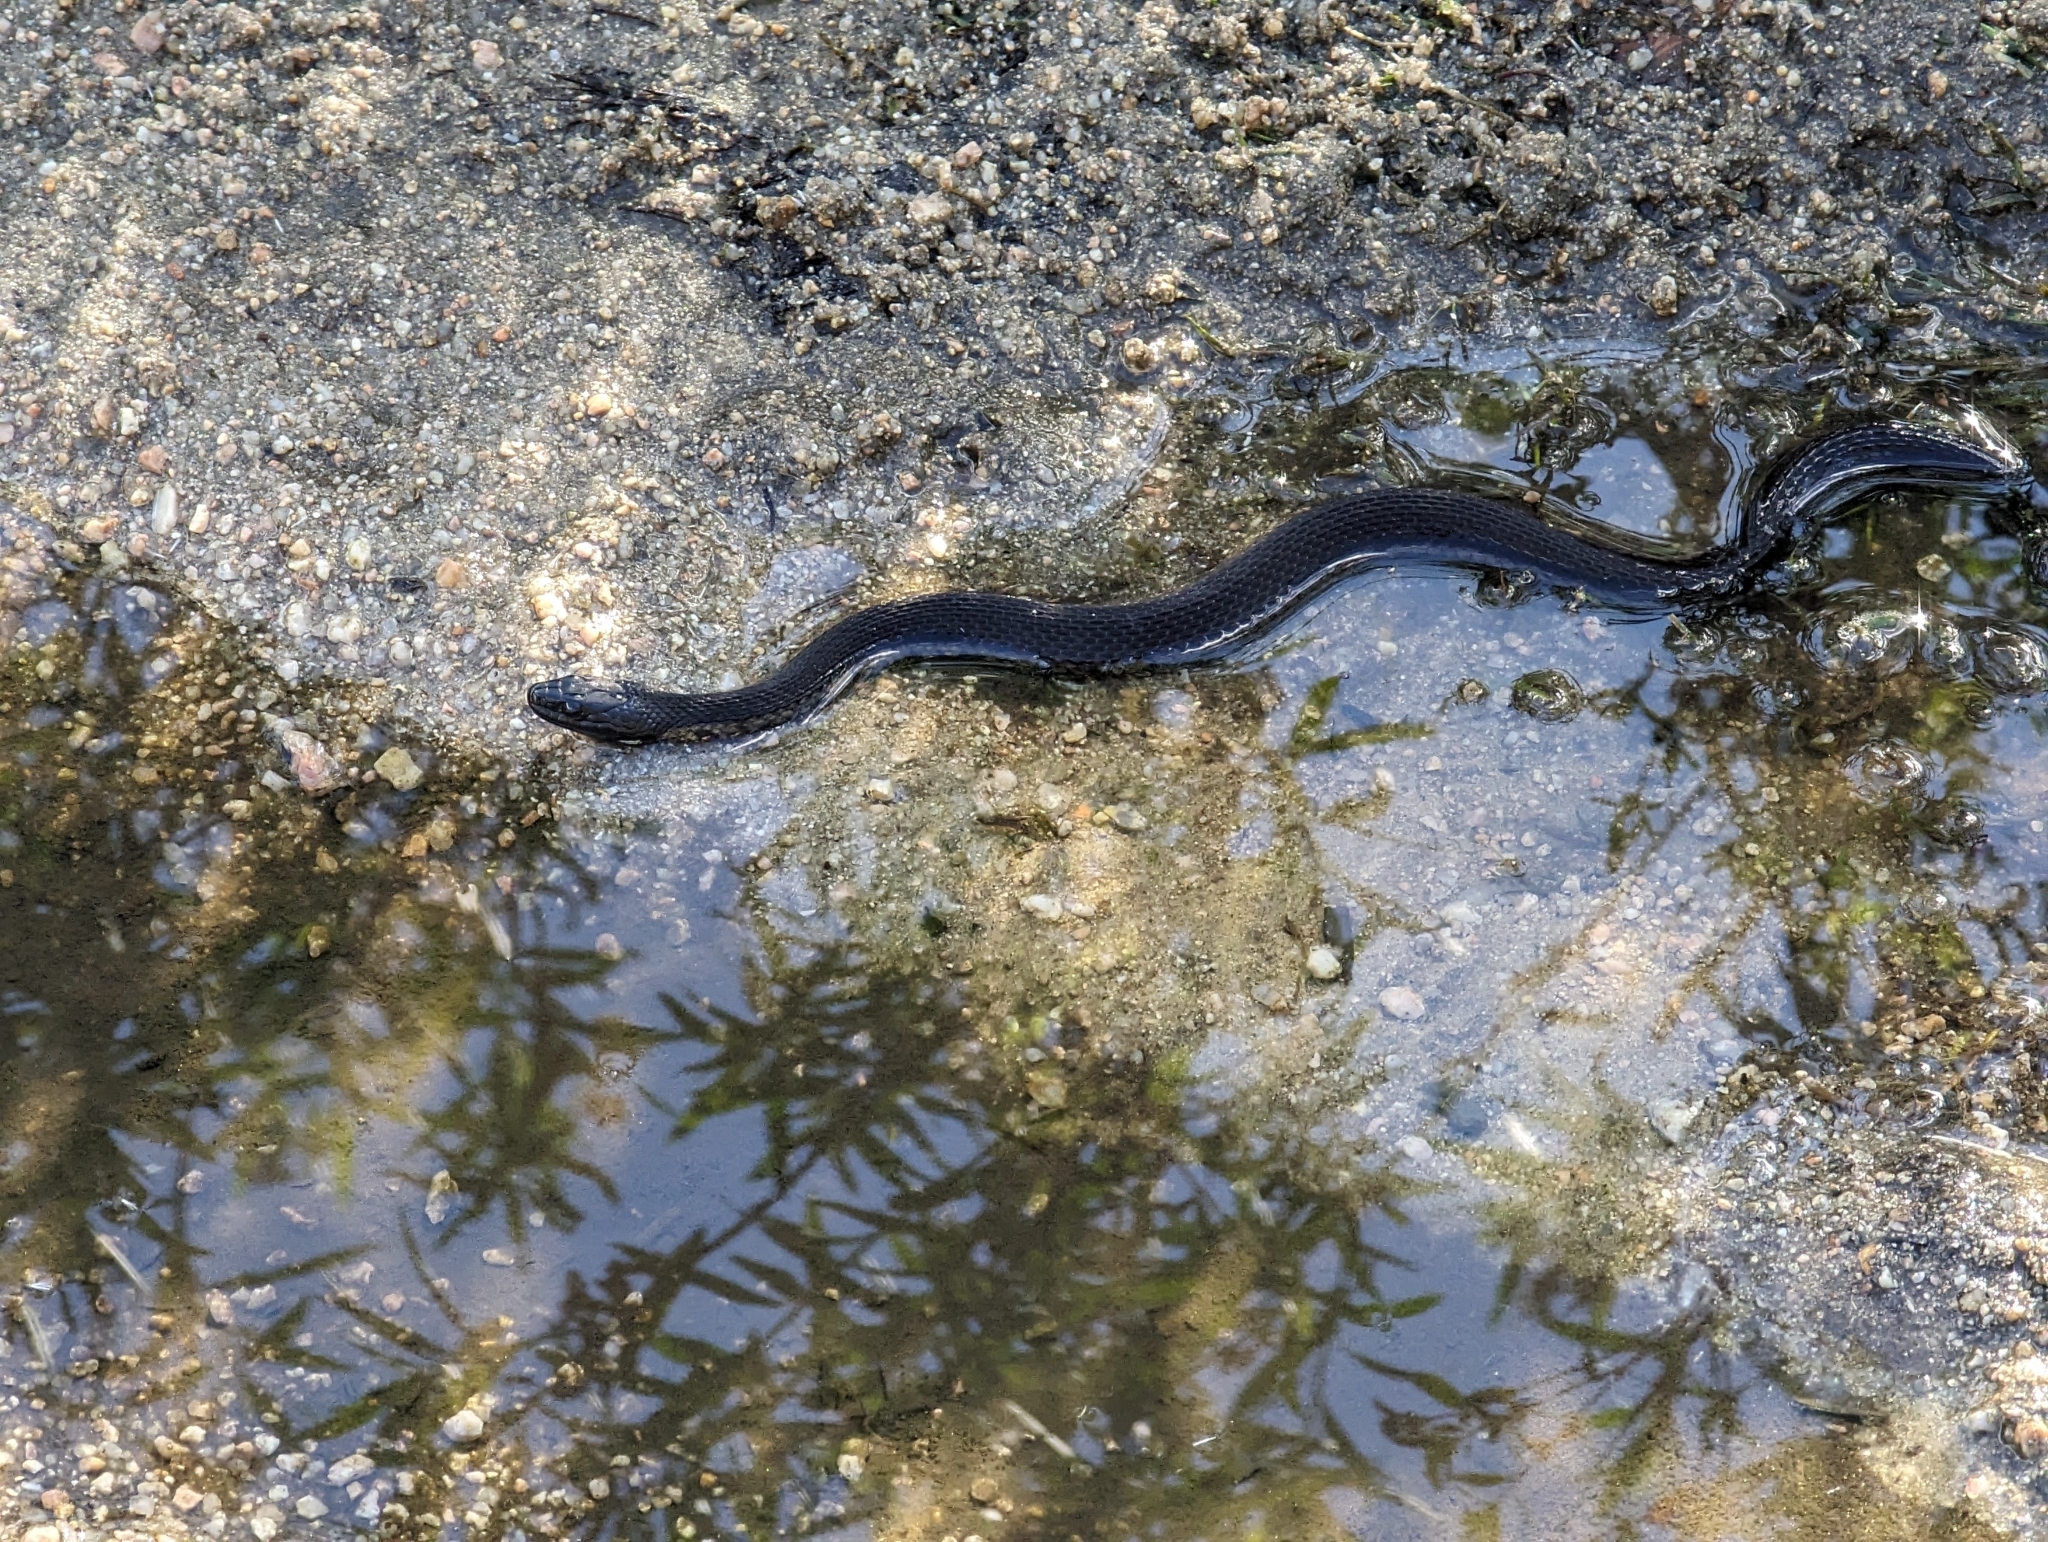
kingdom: Animalia
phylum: Chordata
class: Squamata
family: Colubridae
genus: Thamnophis
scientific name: Thamnophis validus
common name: West coast garter snake
